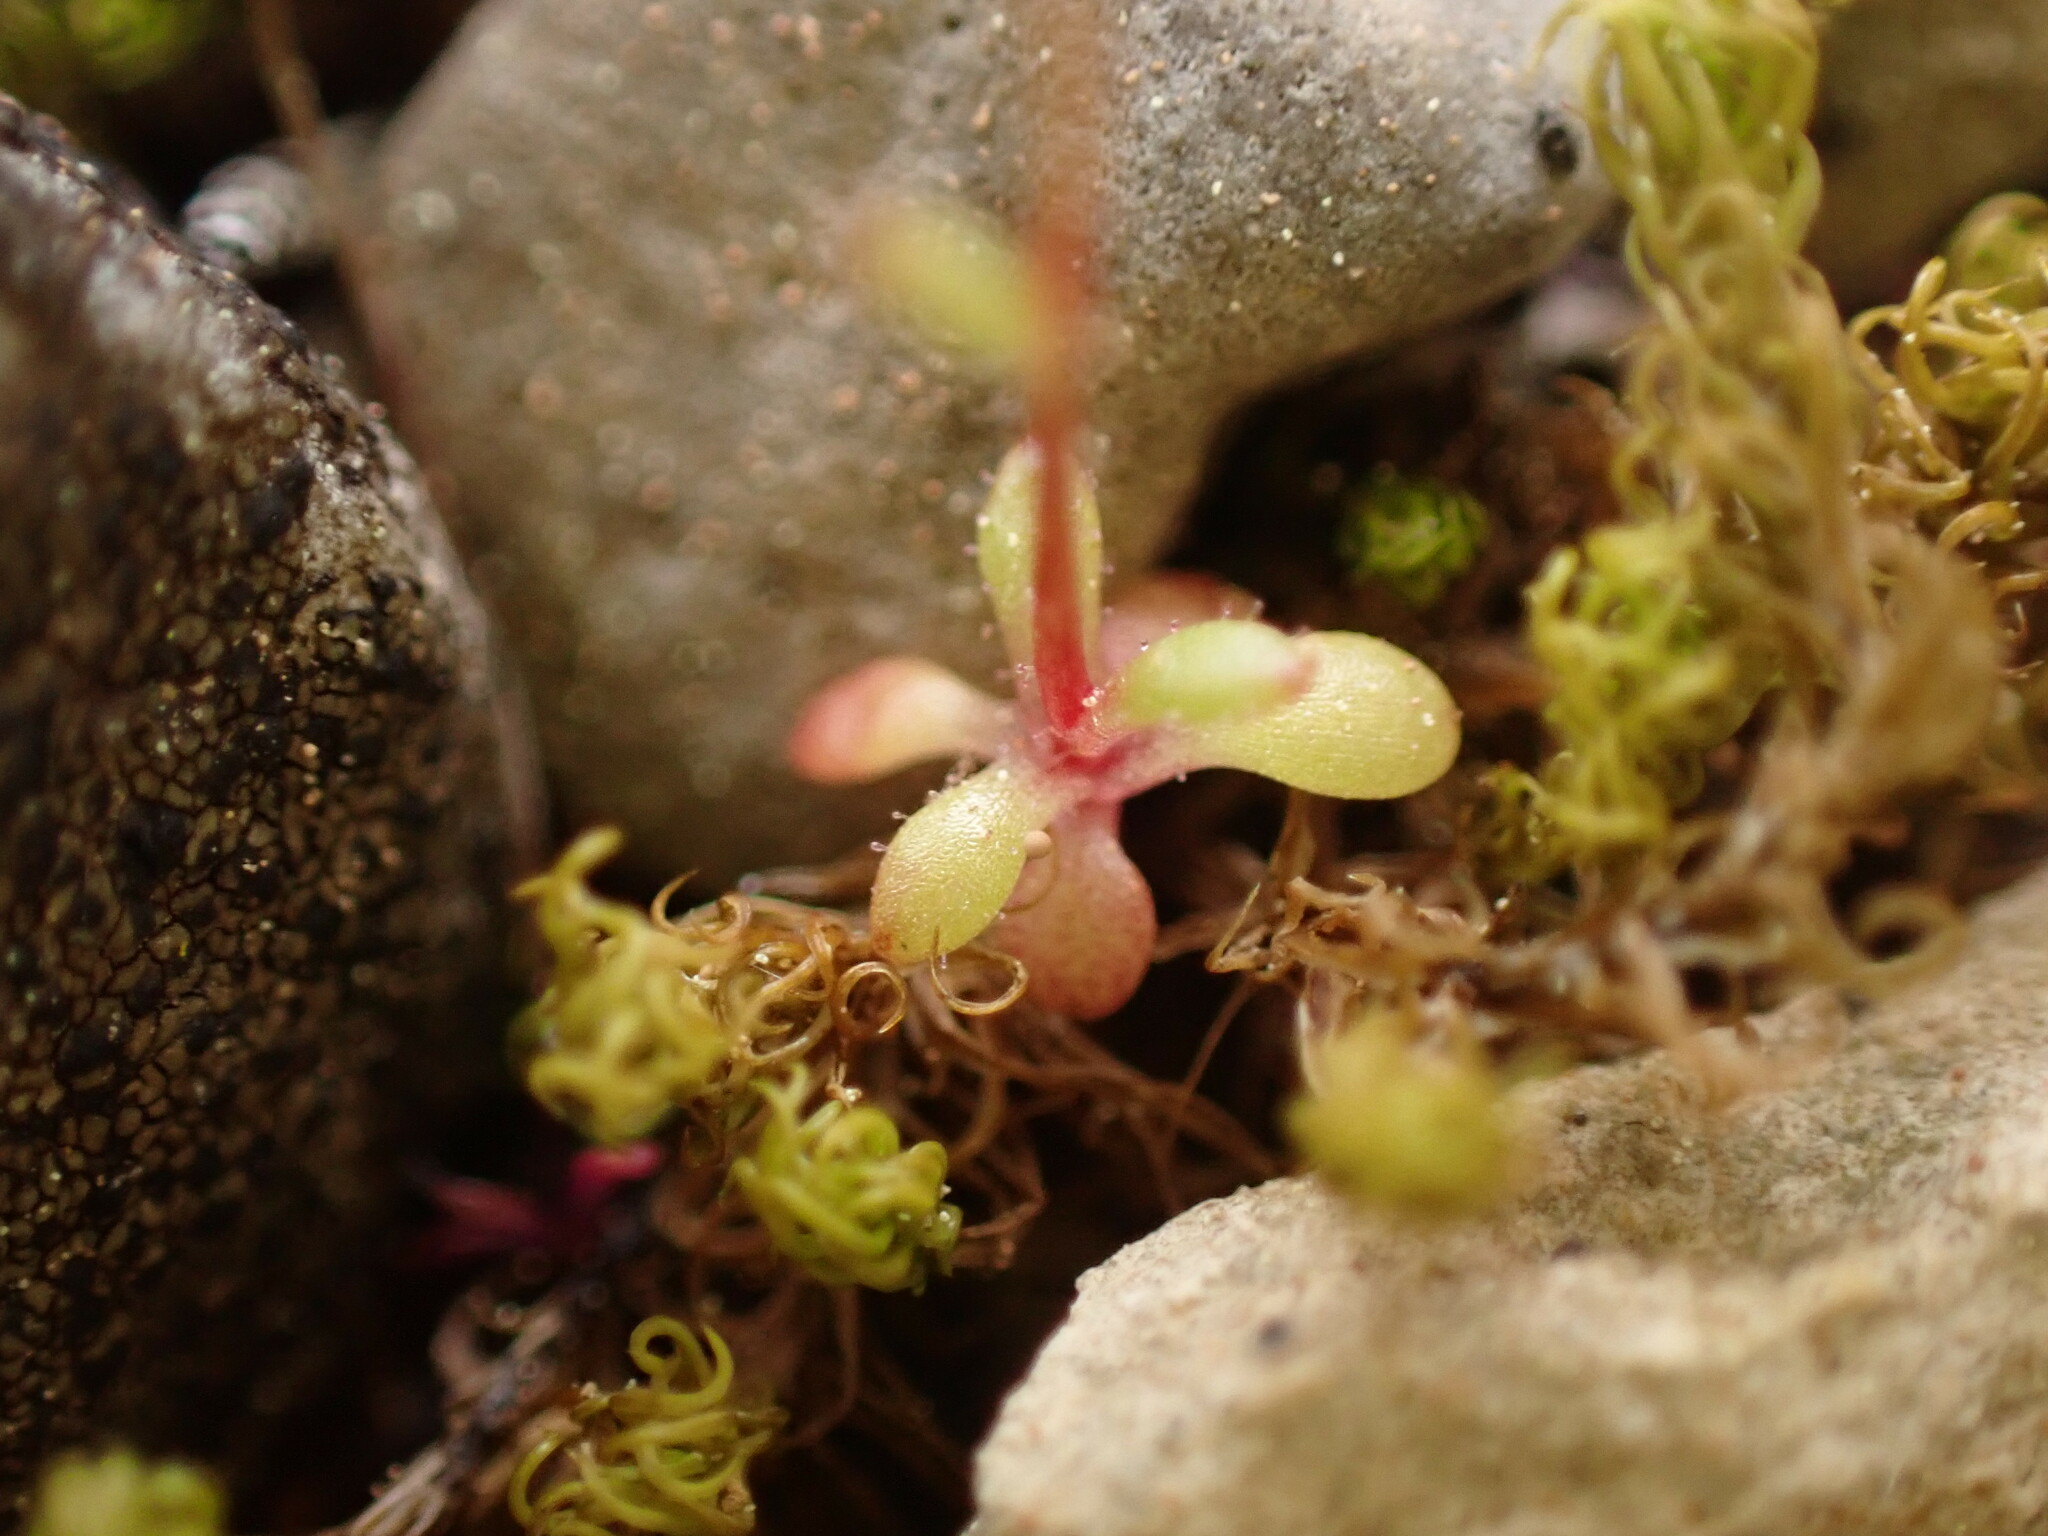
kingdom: Plantae
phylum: Tracheophyta
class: Magnoliopsida
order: Saxifragales
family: Saxifragaceae
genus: Saxifraga
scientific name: Saxifraga tridactylites
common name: Rue-leaved saxifrage
